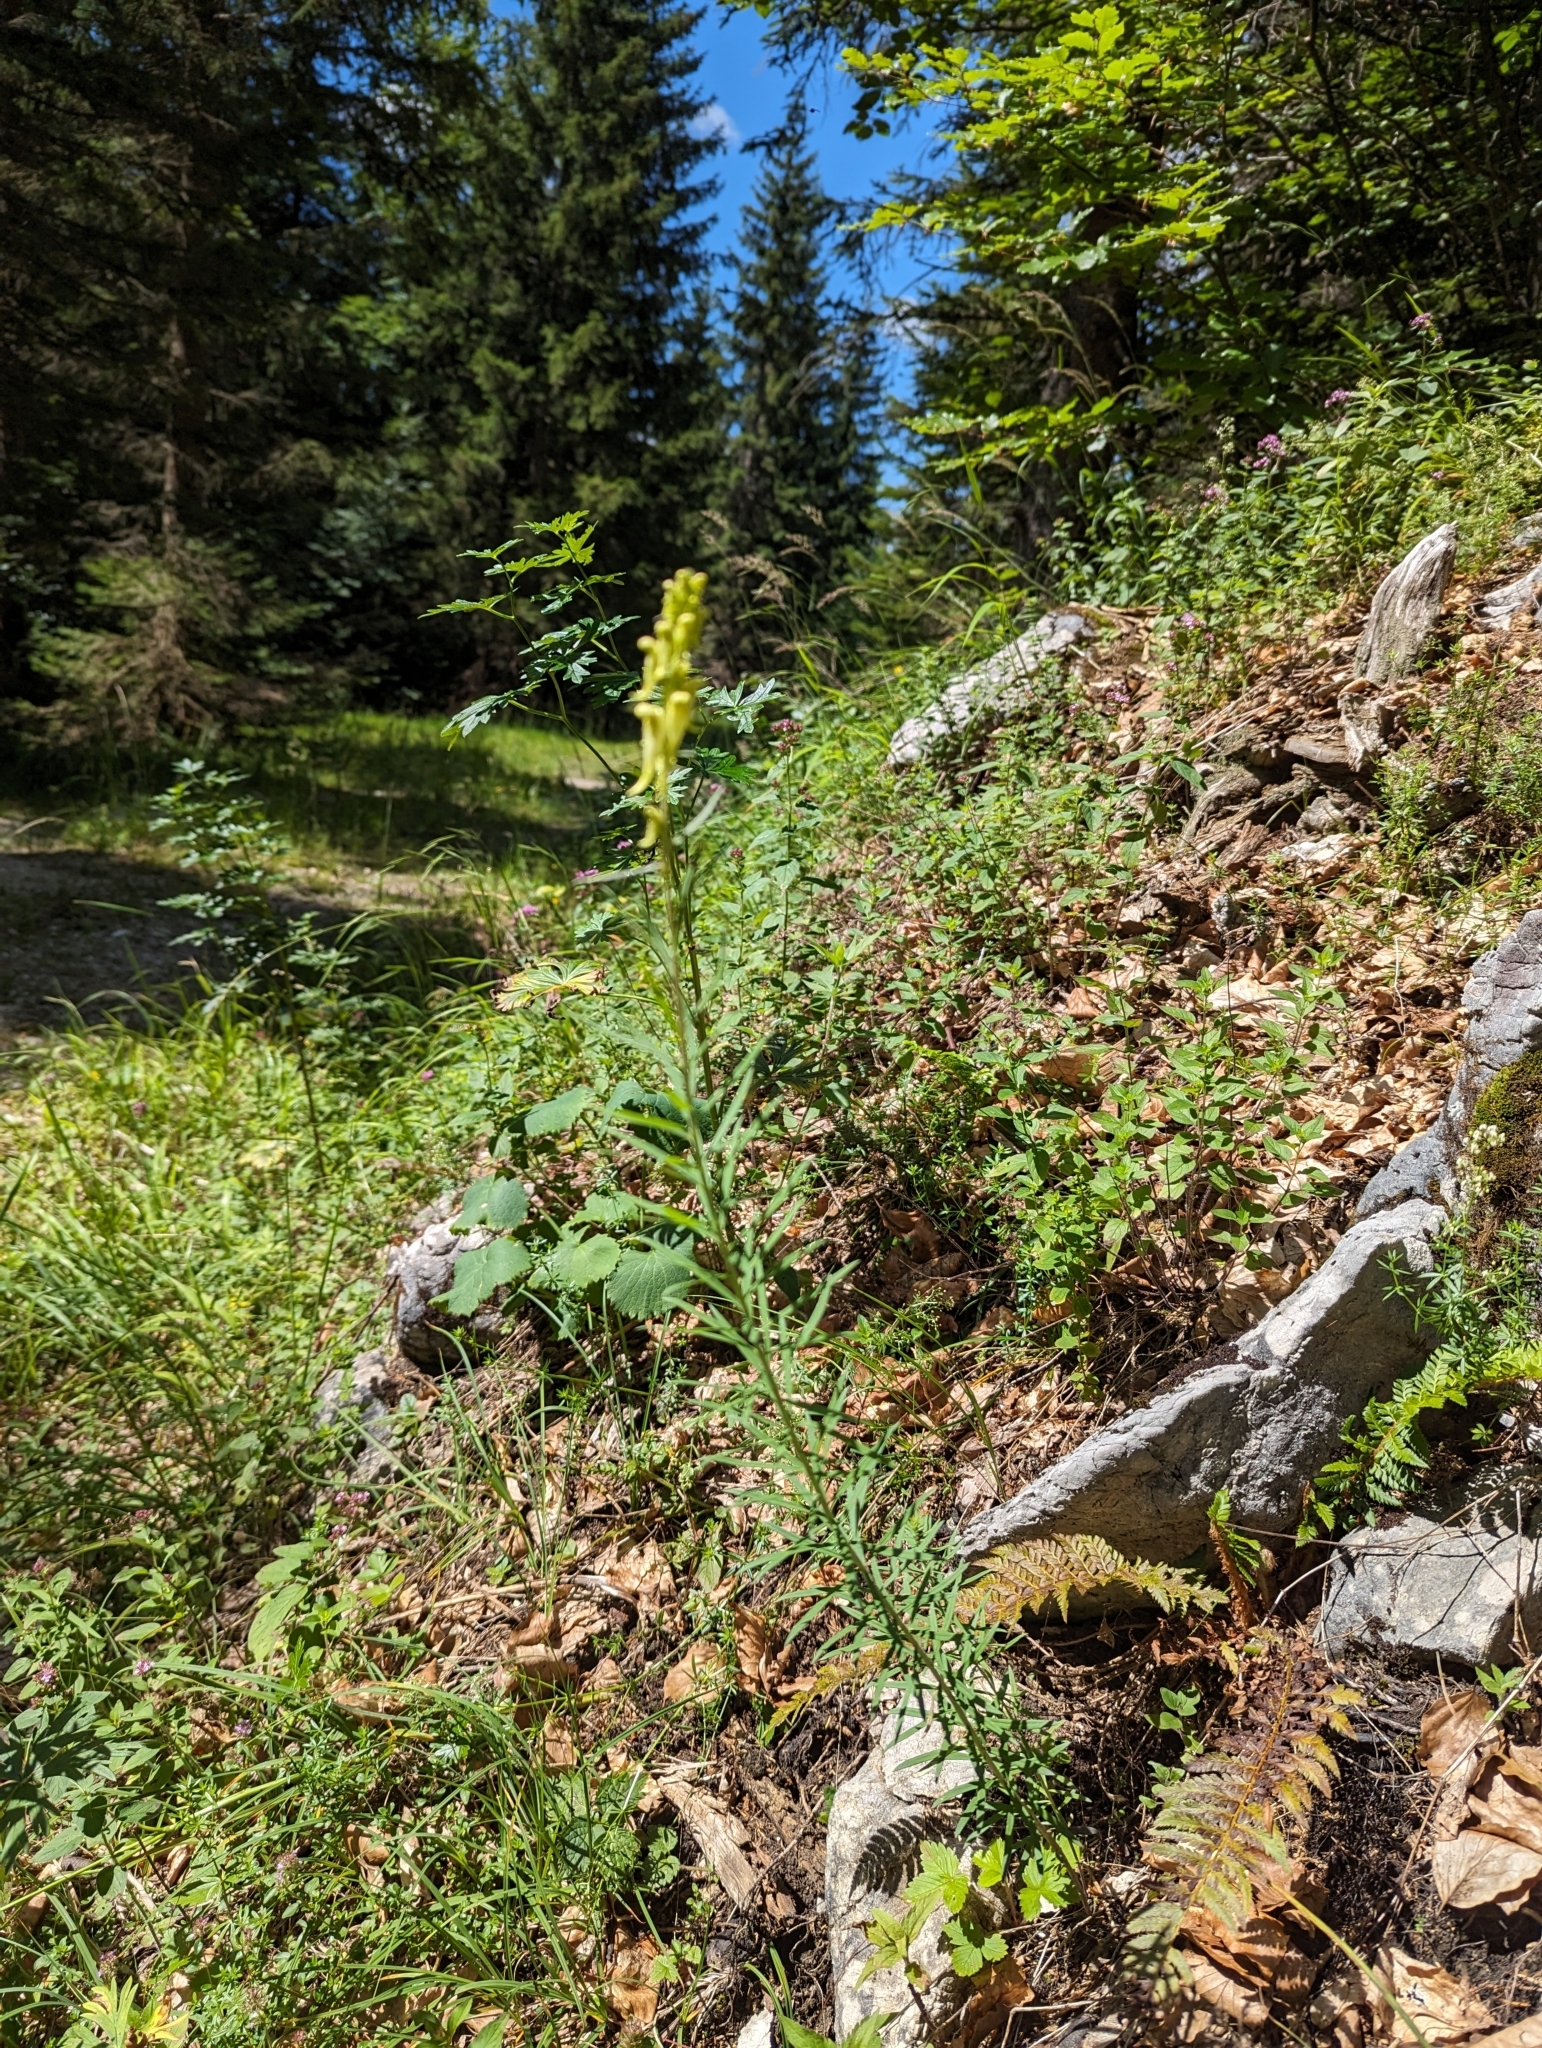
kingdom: Plantae
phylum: Tracheophyta
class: Magnoliopsida
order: Lamiales
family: Plantaginaceae
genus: Linaria
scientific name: Linaria vulgaris
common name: Butter and eggs
